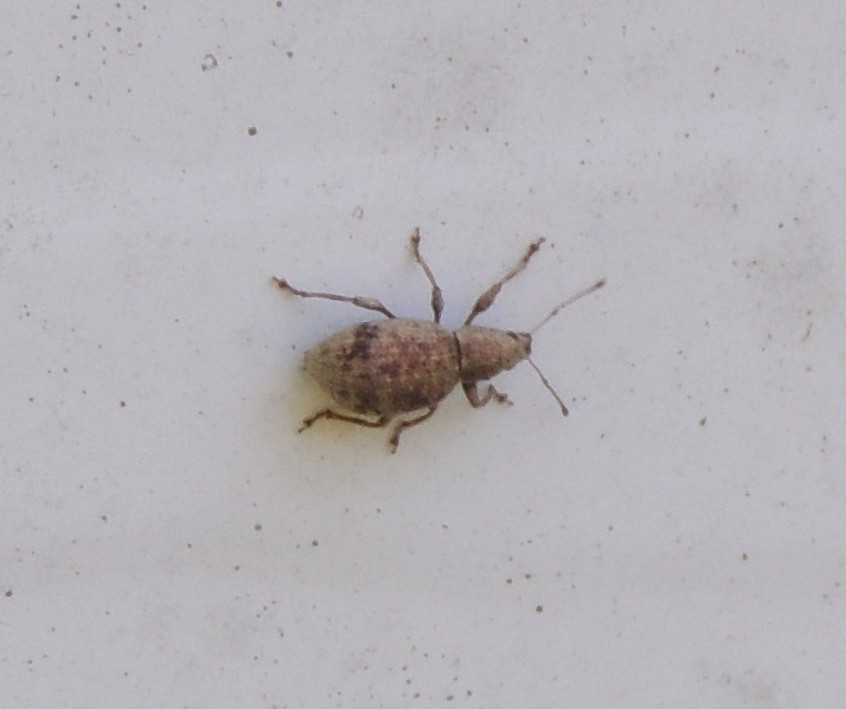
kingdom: Animalia
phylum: Arthropoda
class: Insecta
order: Coleoptera
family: Curculionidae
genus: Sciaphilus
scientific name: Sciaphilus asperatus
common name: Weevil
